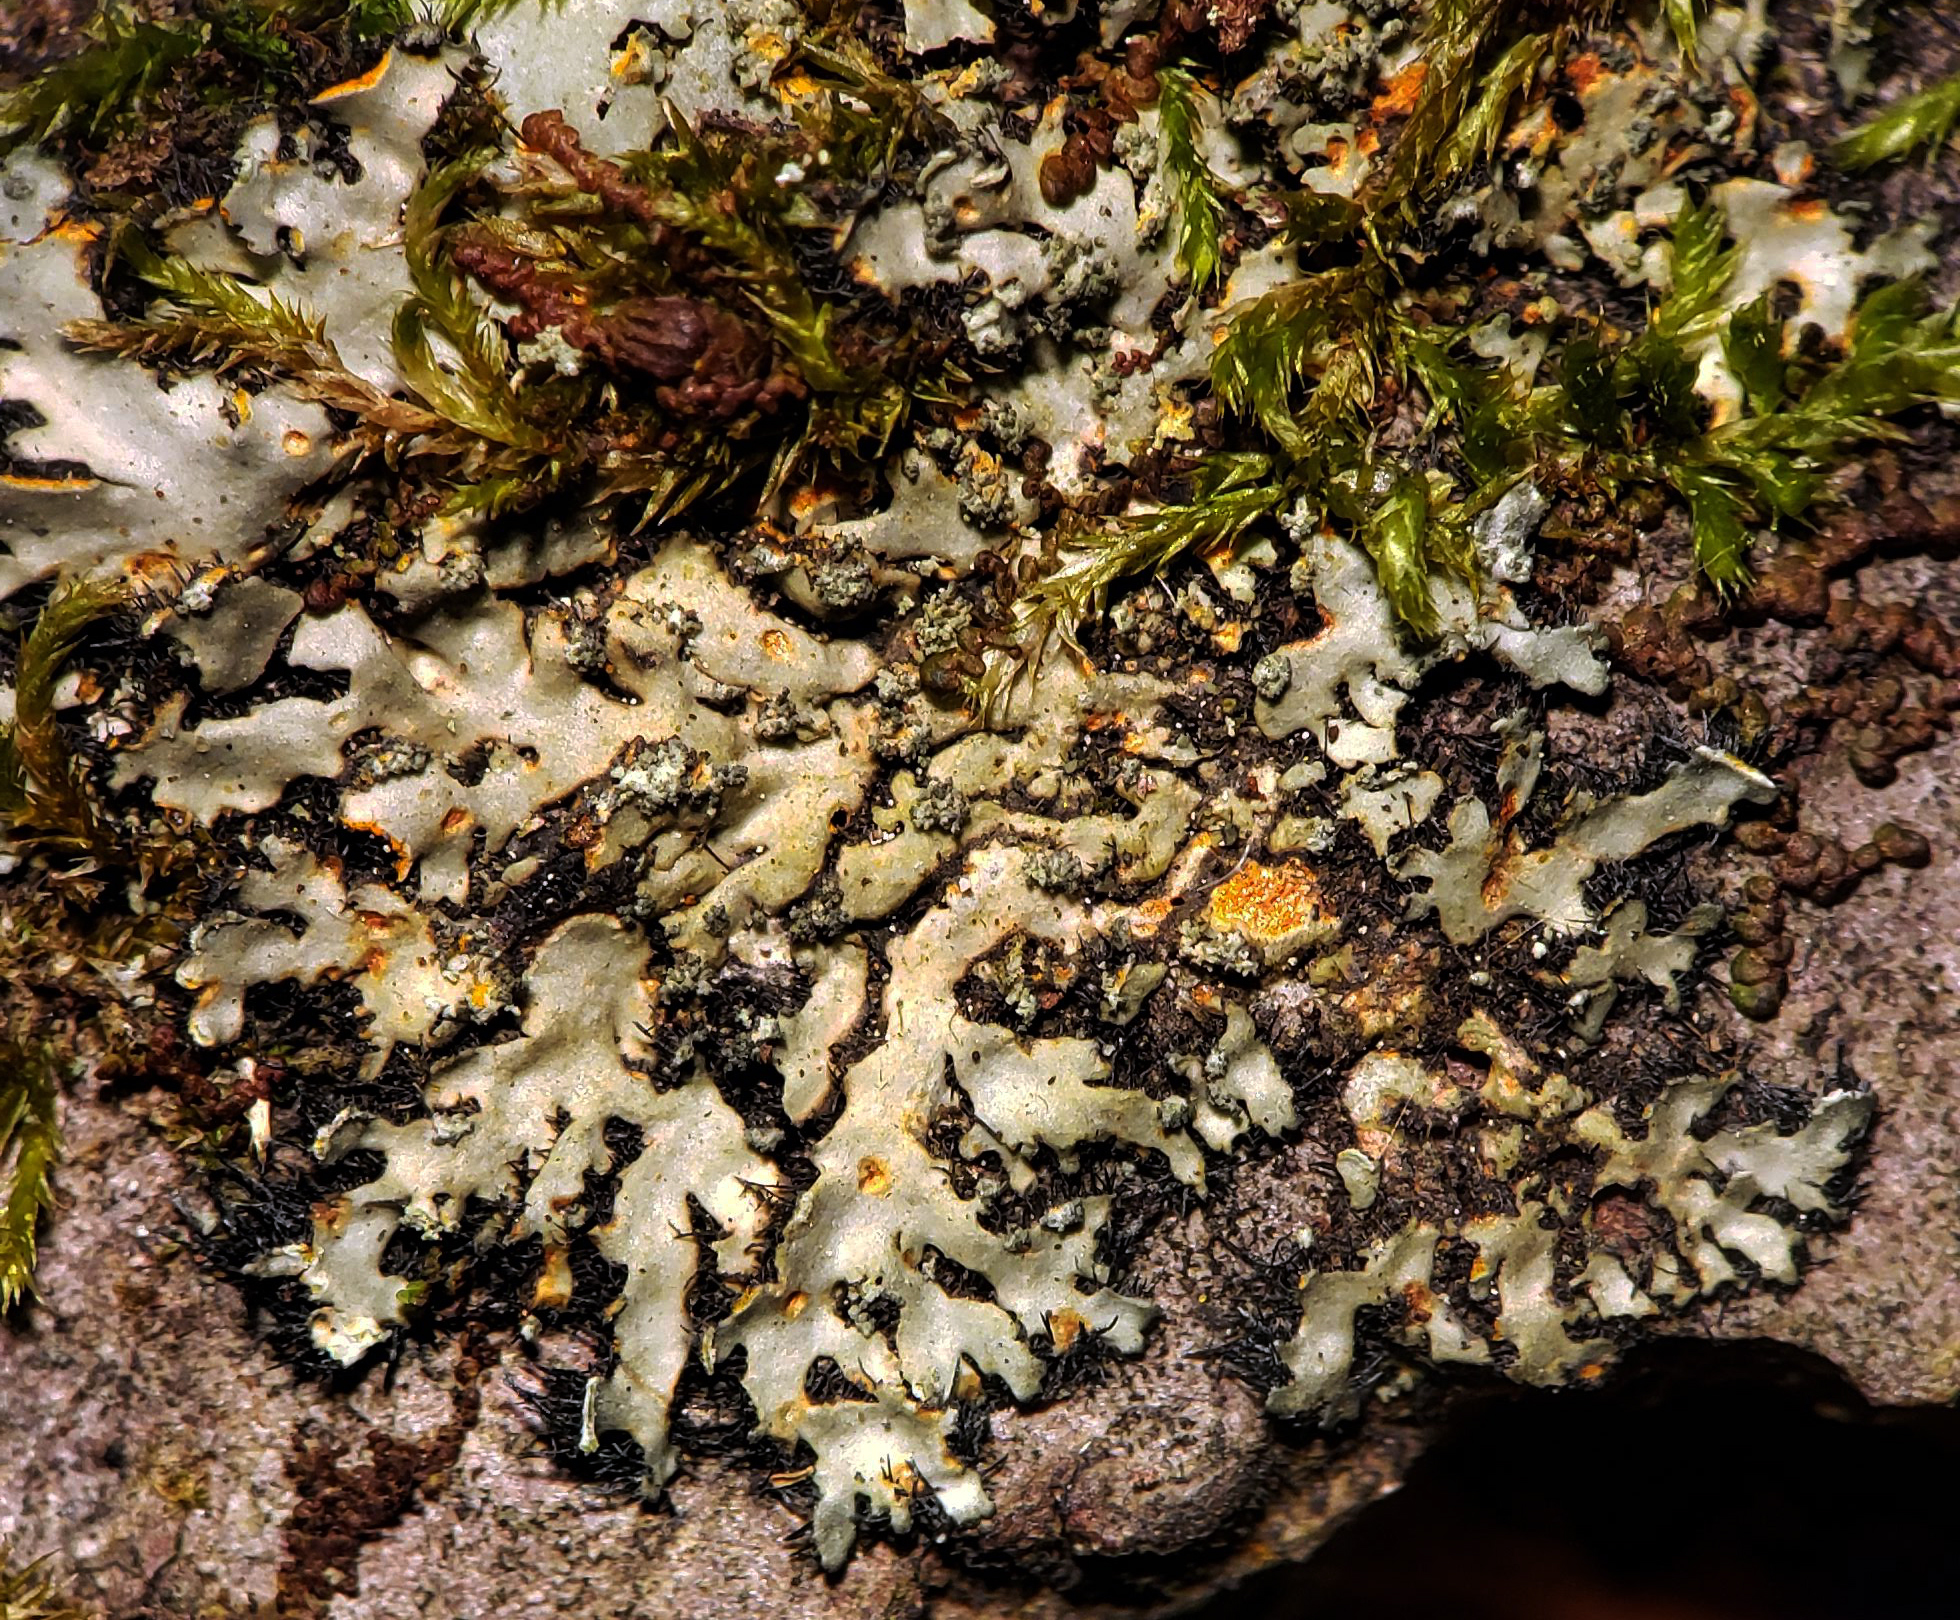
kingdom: Fungi
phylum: Ascomycota
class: Lecanoromycetes
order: Caliciales
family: Physciaceae
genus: Phaeophyscia
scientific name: Phaeophyscia rubropulchra
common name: Orange-cored shadow lichen
